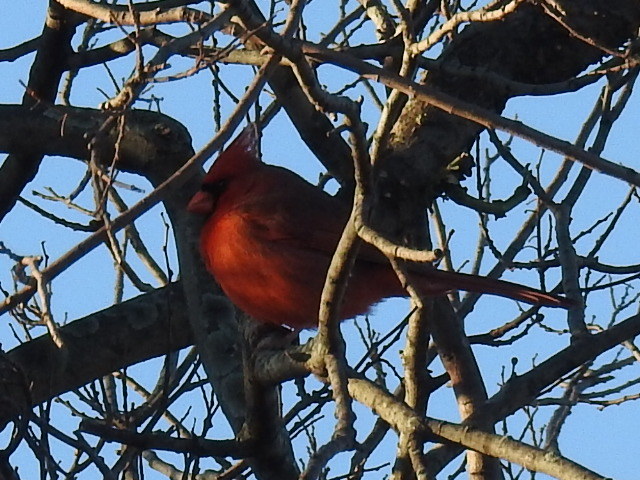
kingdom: Animalia
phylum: Chordata
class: Aves
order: Passeriformes
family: Cardinalidae
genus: Cardinalis
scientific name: Cardinalis cardinalis
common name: Northern cardinal
